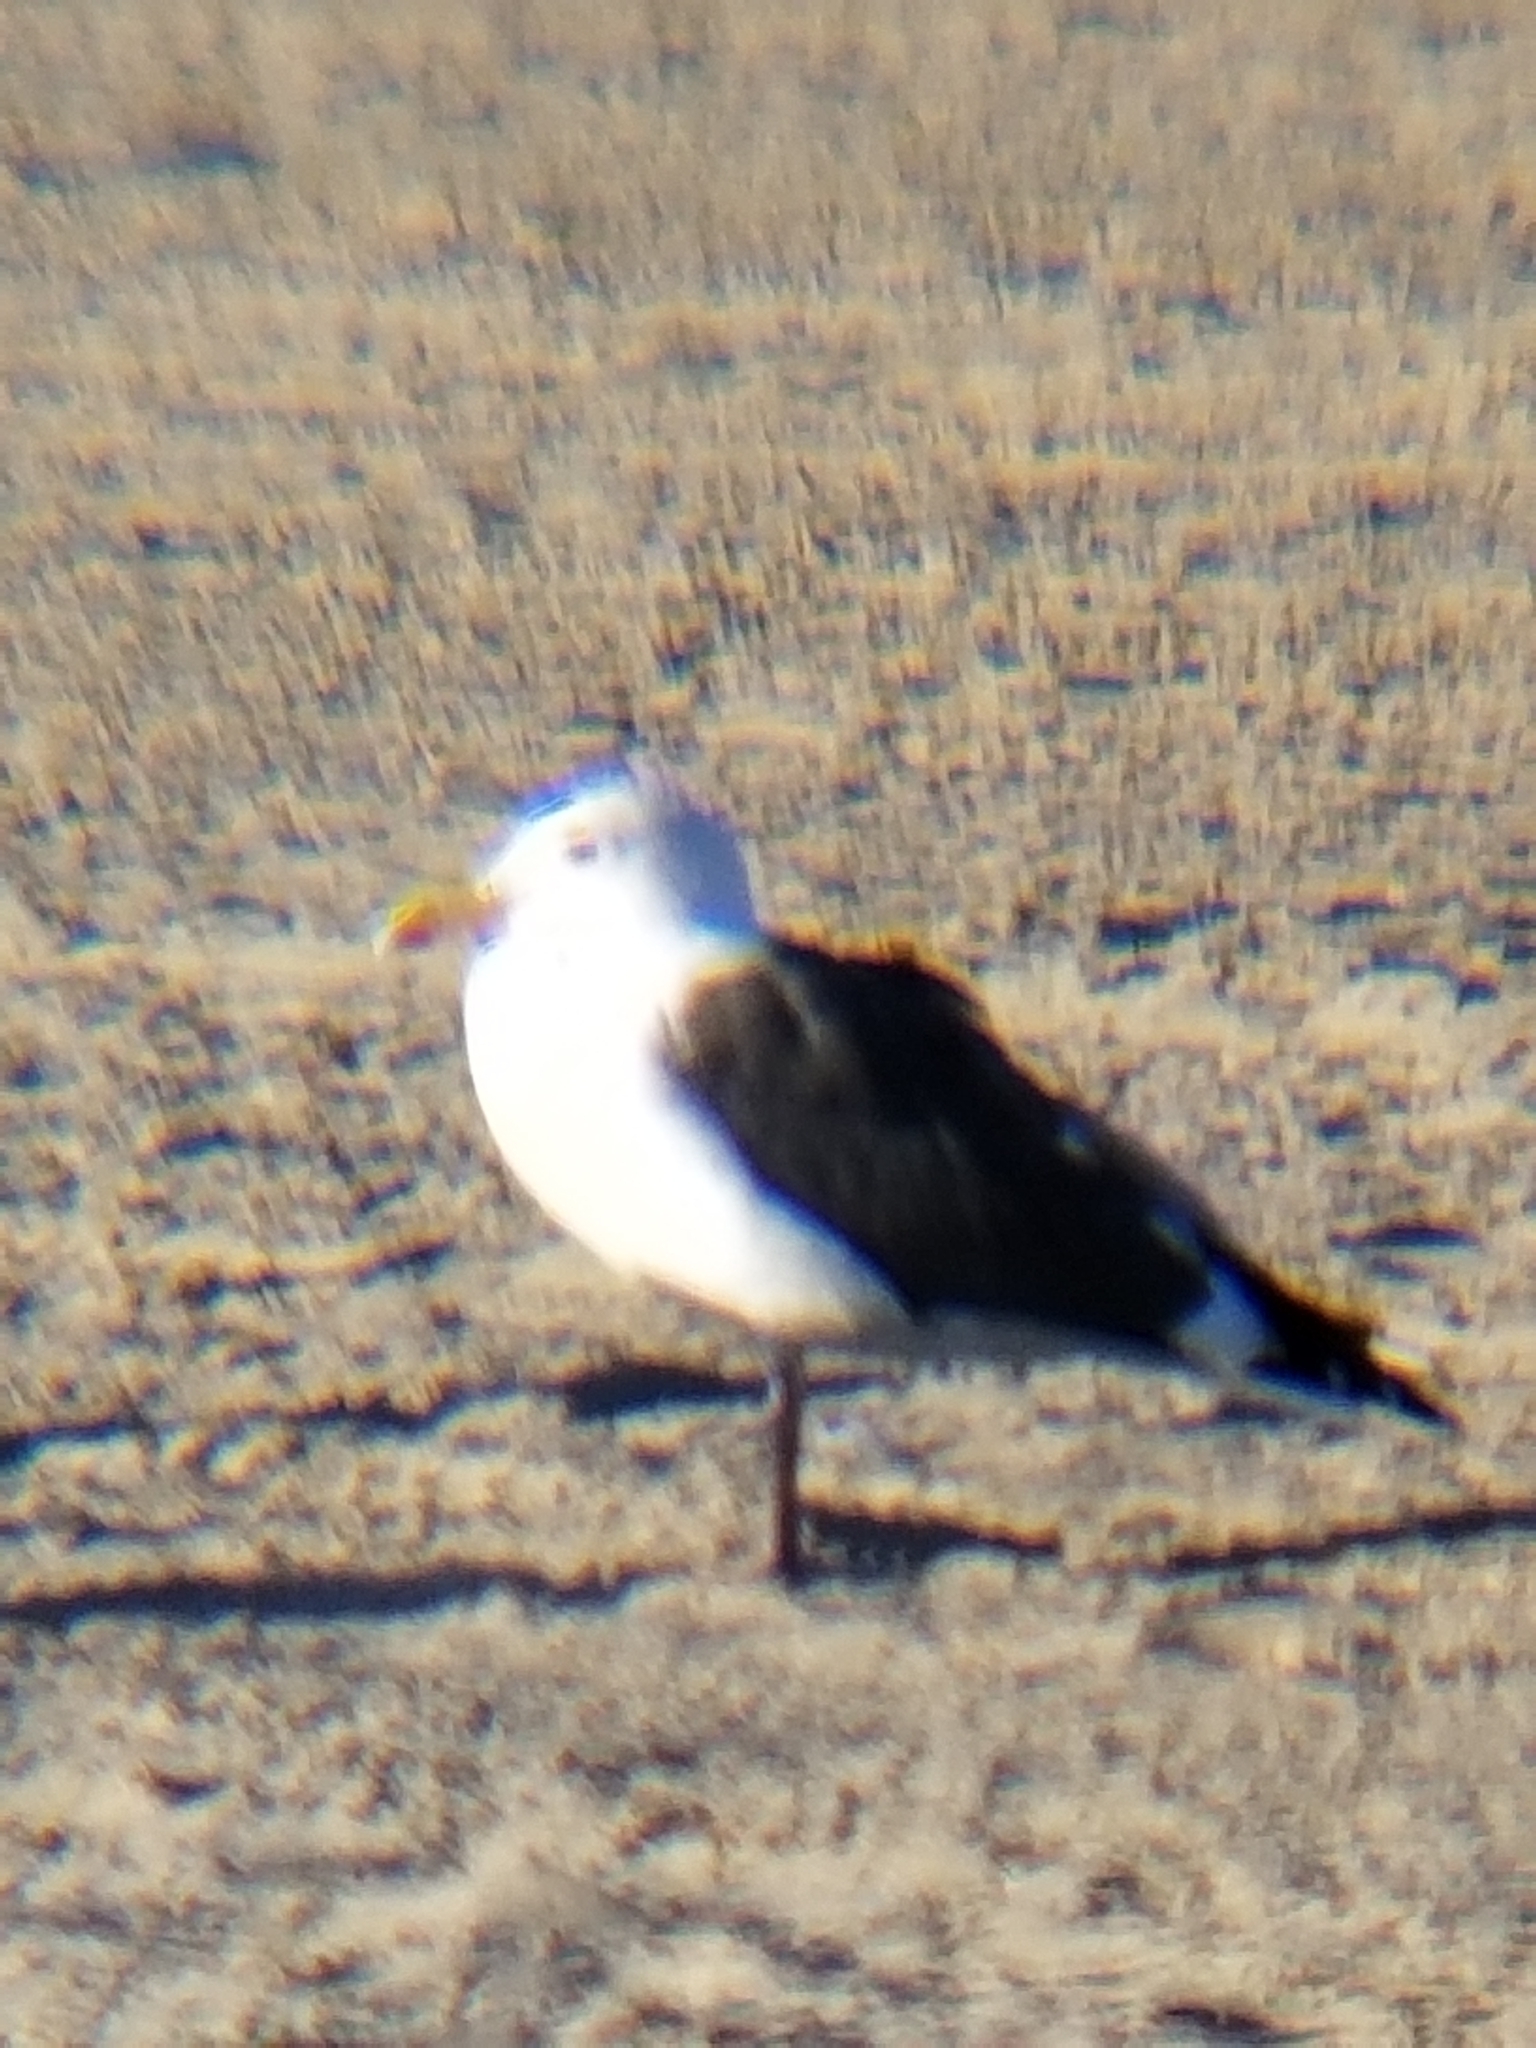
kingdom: Animalia
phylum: Chordata
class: Aves
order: Charadriiformes
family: Laridae
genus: Larus
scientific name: Larus occidentalis
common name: Western gull
